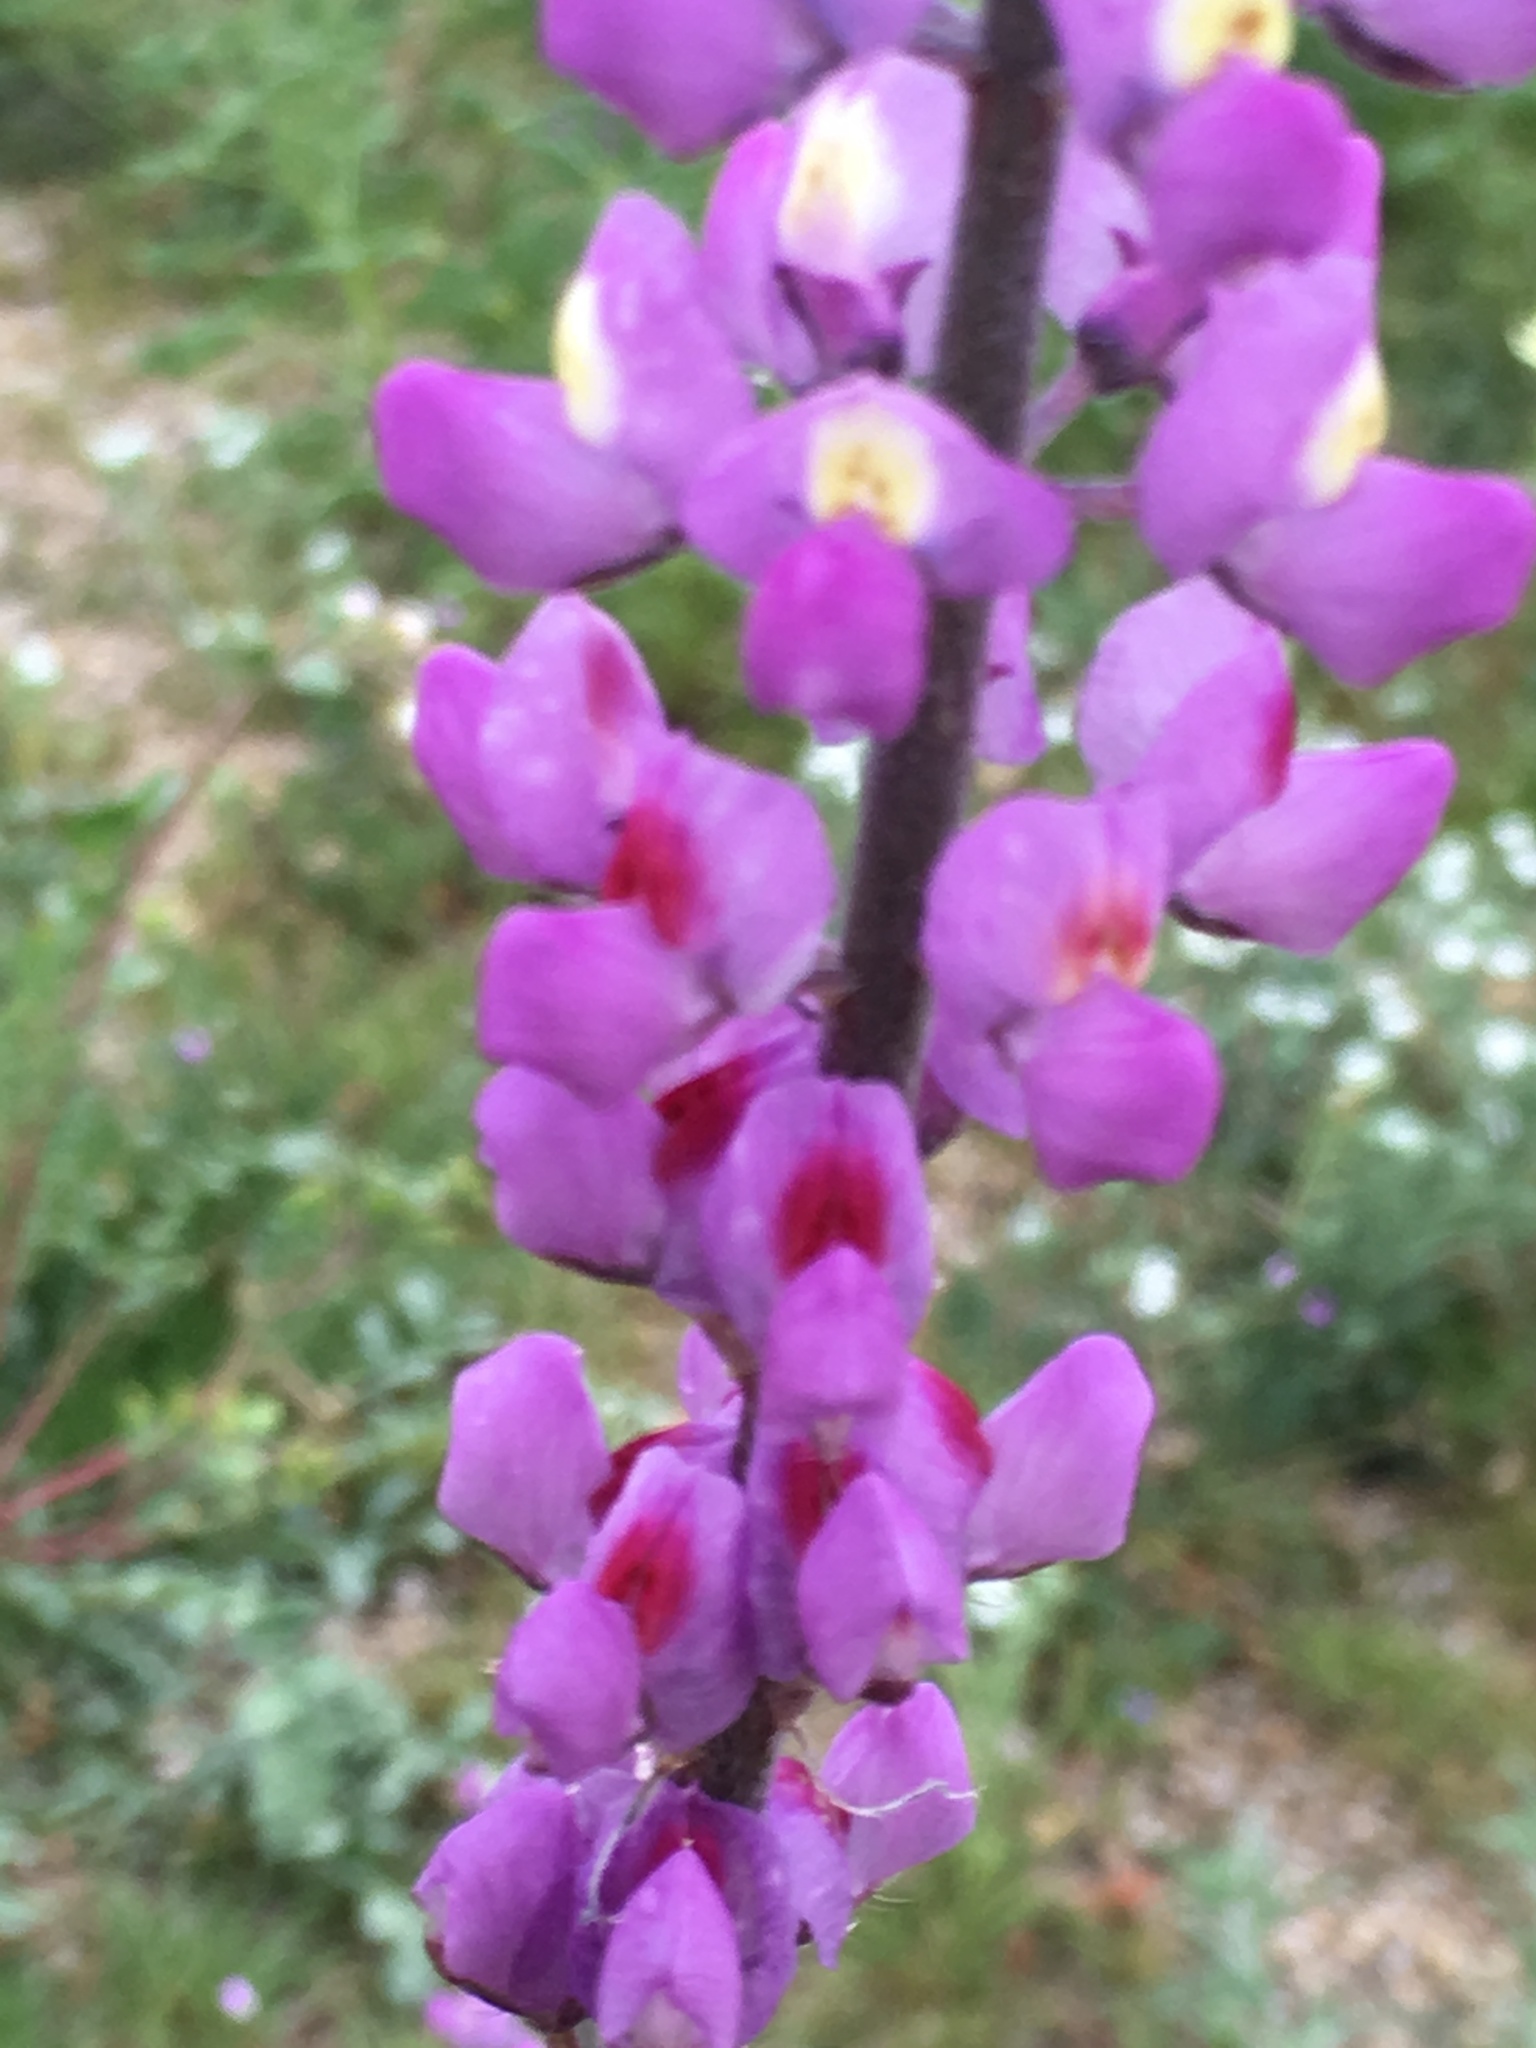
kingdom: Plantae
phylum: Tracheophyta
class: Magnoliopsida
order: Fabales
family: Fabaceae
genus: Lupinus
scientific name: Lupinus arizonicus
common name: Arizona lupine
